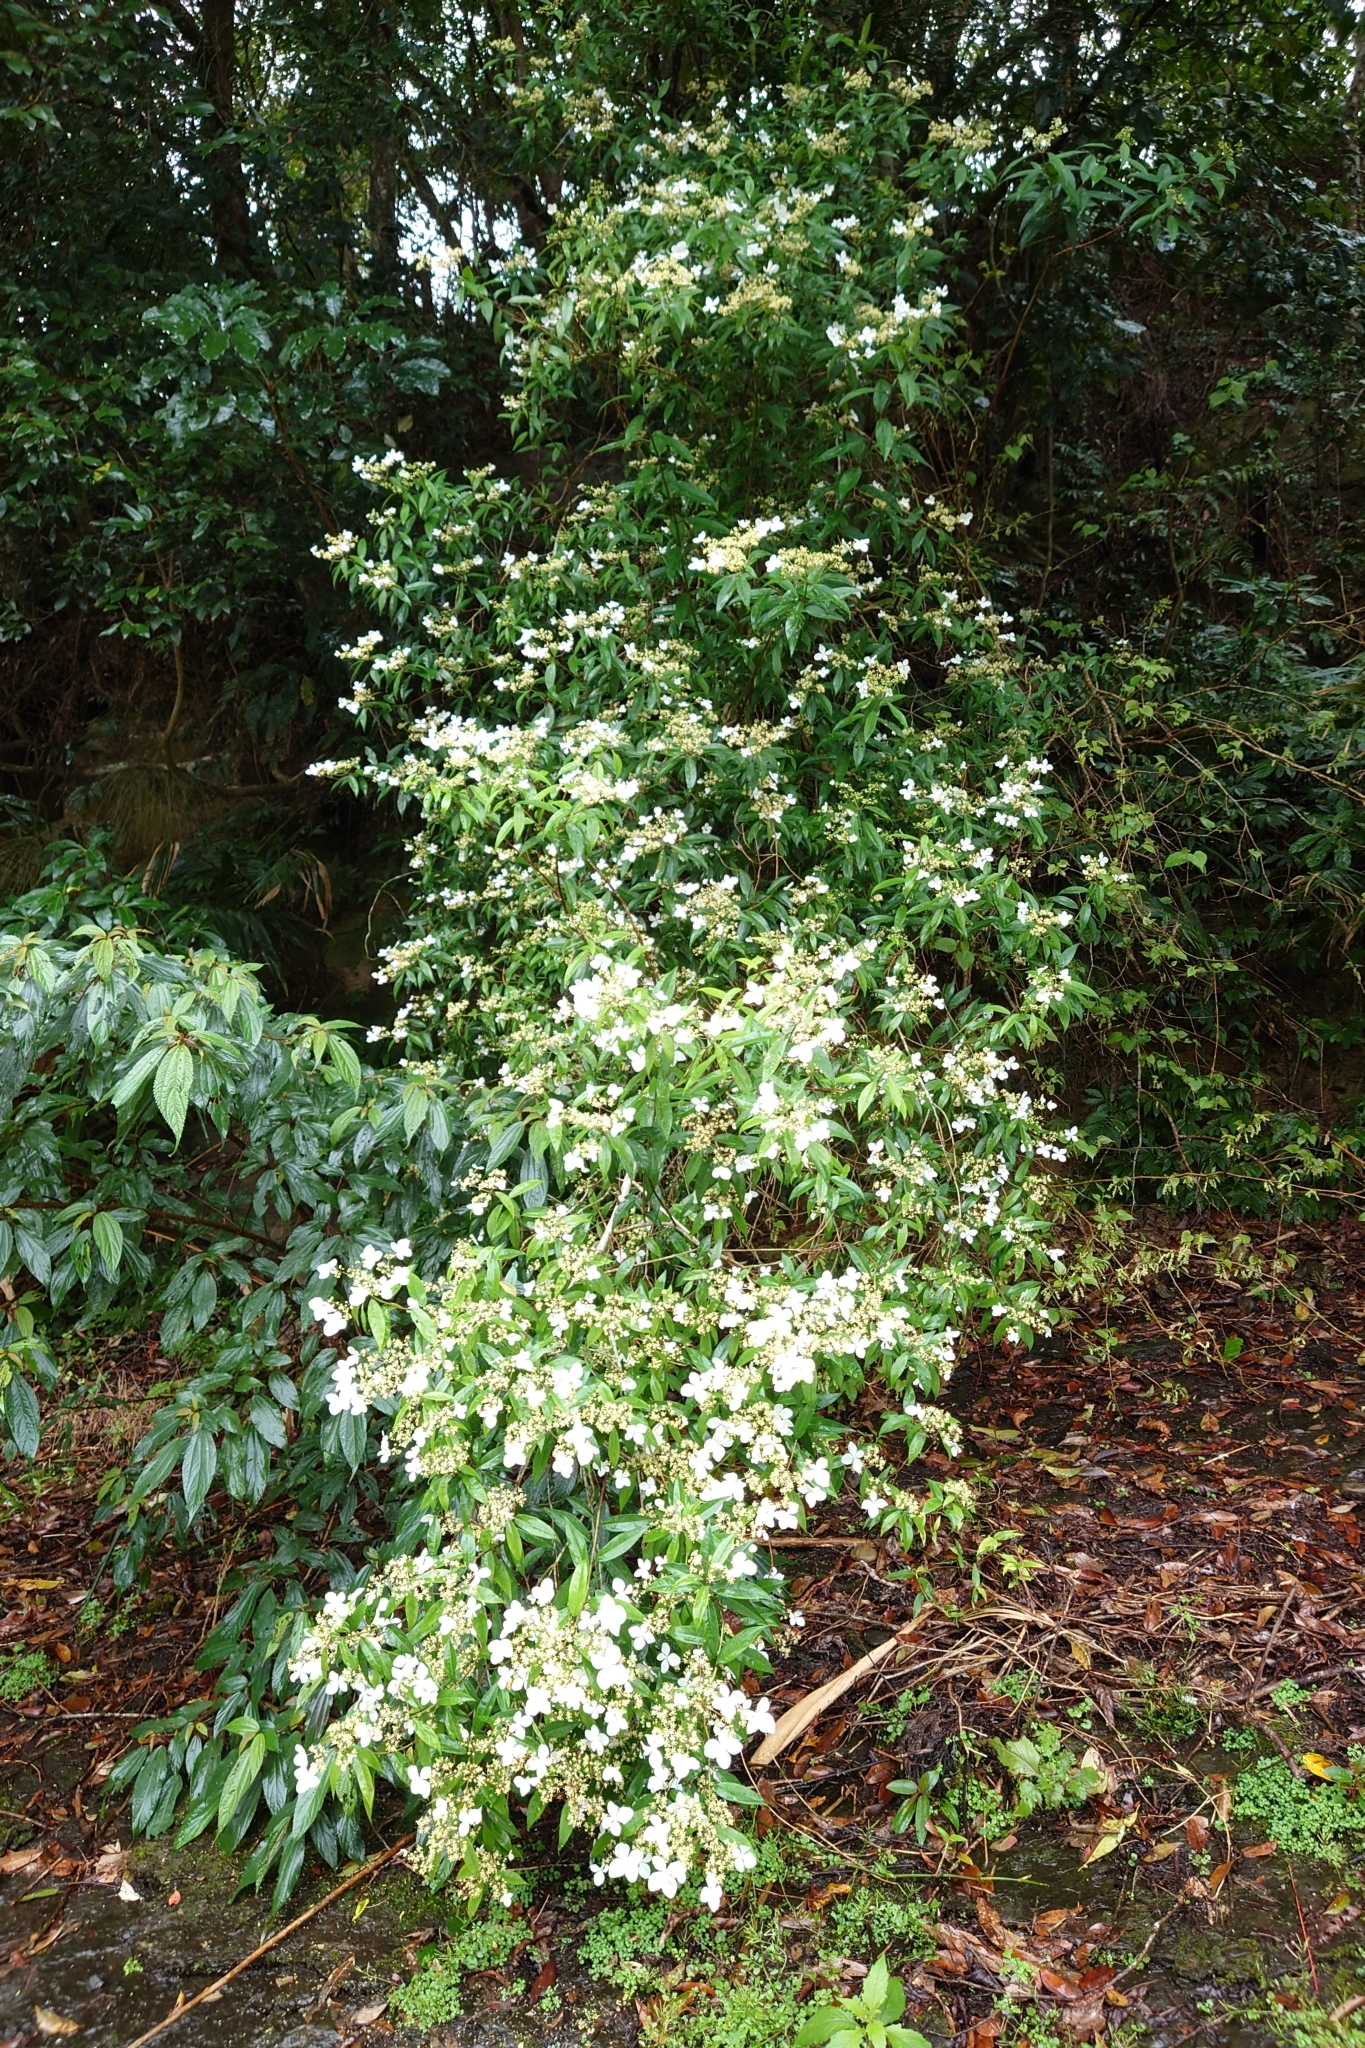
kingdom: Plantae
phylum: Tracheophyta
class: Magnoliopsida
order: Cornales
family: Hydrangeaceae
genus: Hydrangea
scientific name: Hydrangea chinensis
